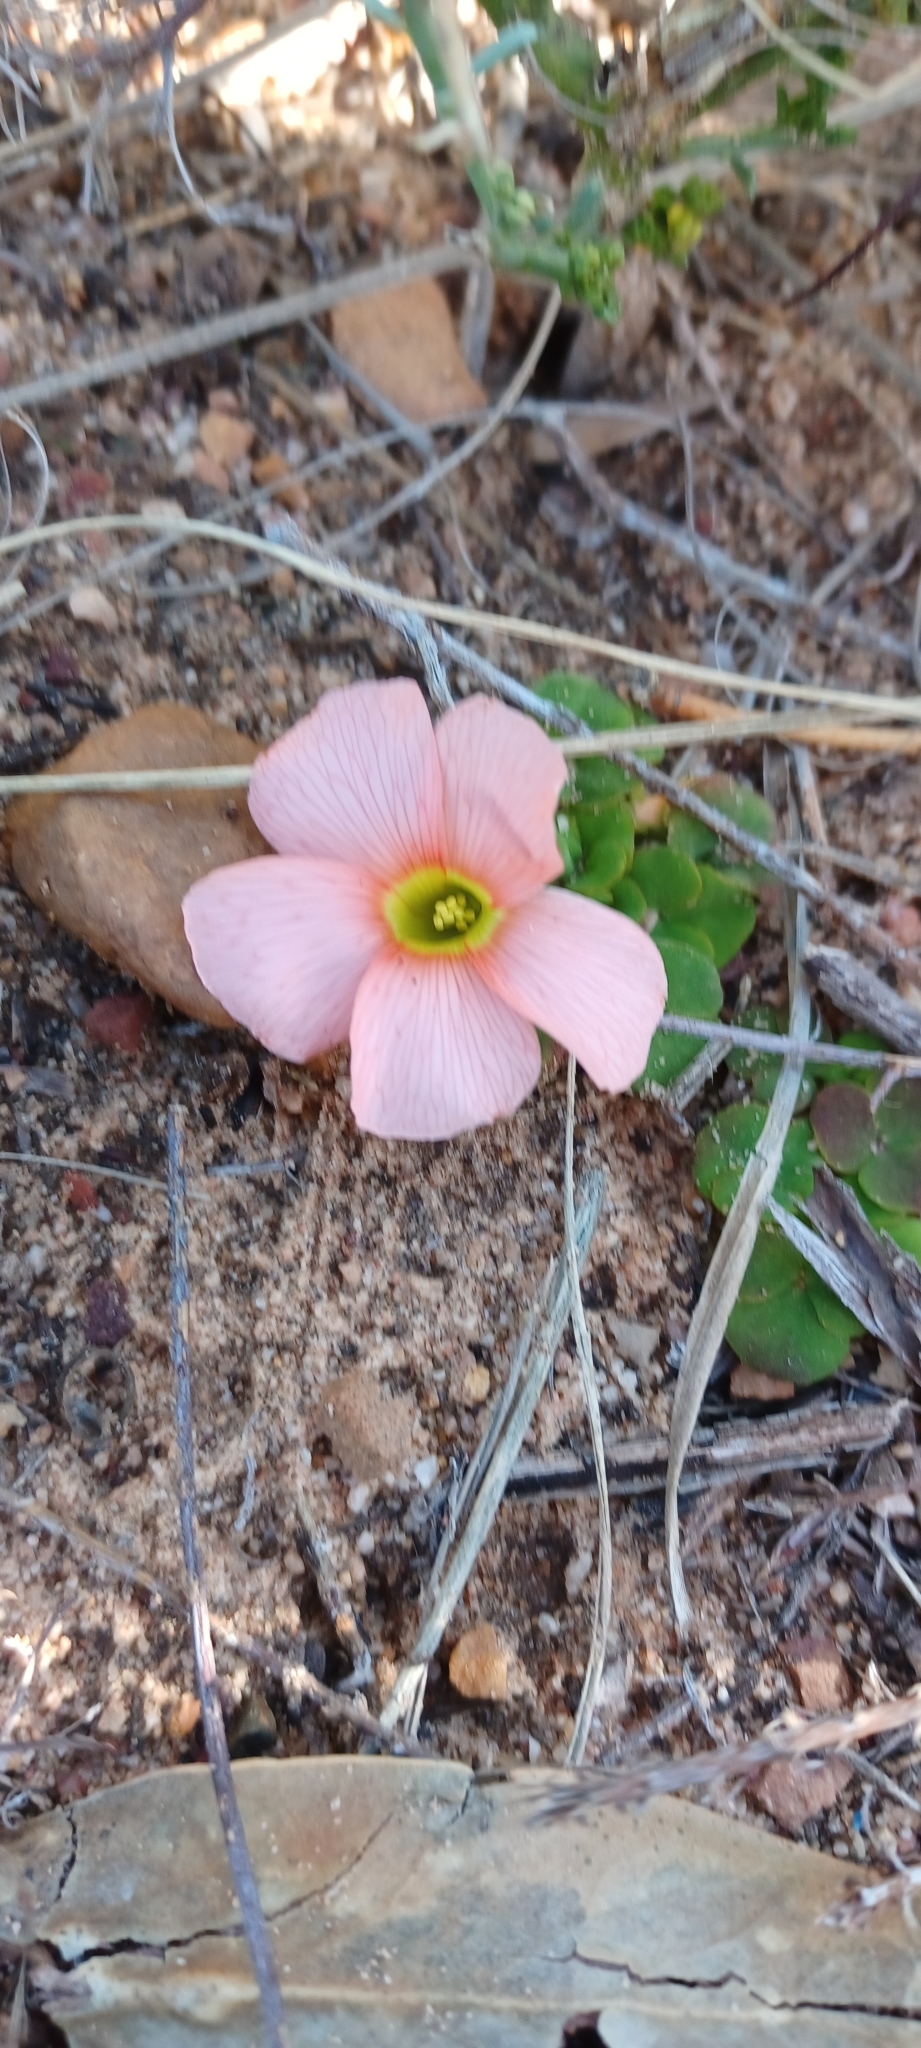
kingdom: Plantae
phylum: Tracheophyta
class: Magnoliopsida
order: Oxalidales
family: Oxalidaceae
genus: Oxalis
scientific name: Oxalis pulchella
